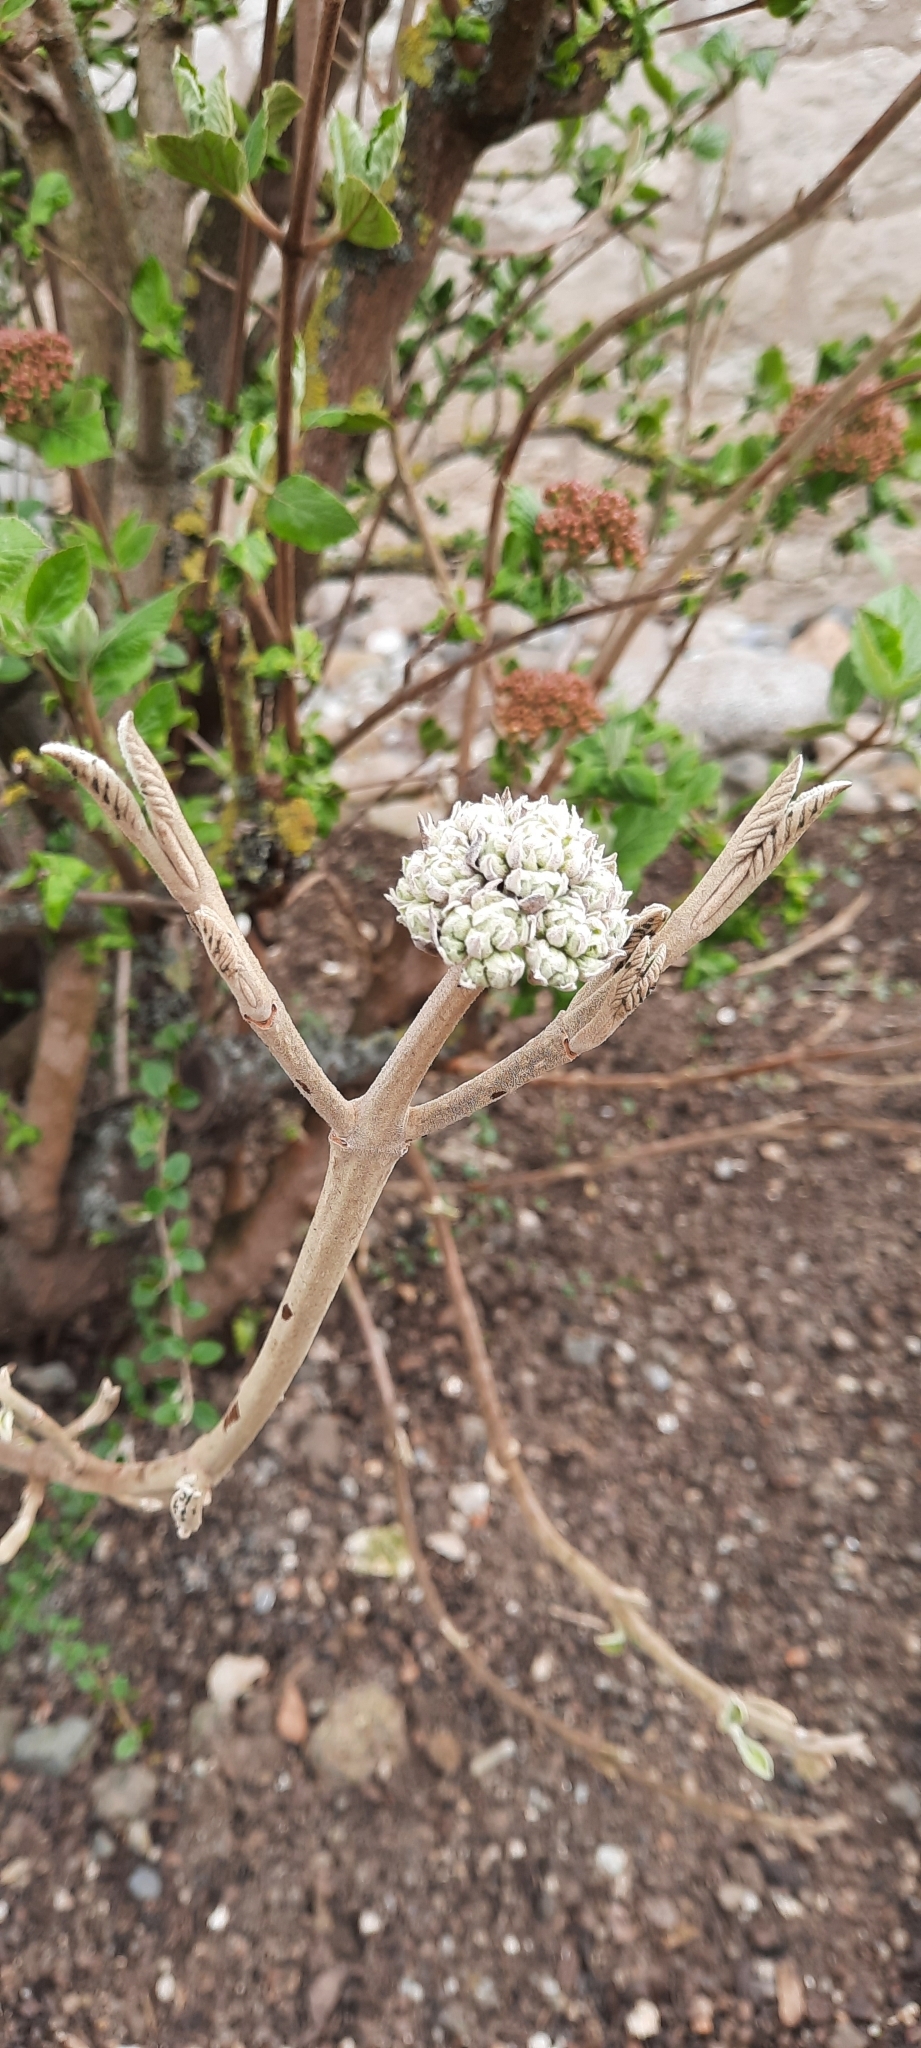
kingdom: Plantae
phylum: Tracheophyta
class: Magnoliopsida
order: Dipsacales
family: Viburnaceae
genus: Viburnum
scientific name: Viburnum lantana
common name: Wayfaring tree
